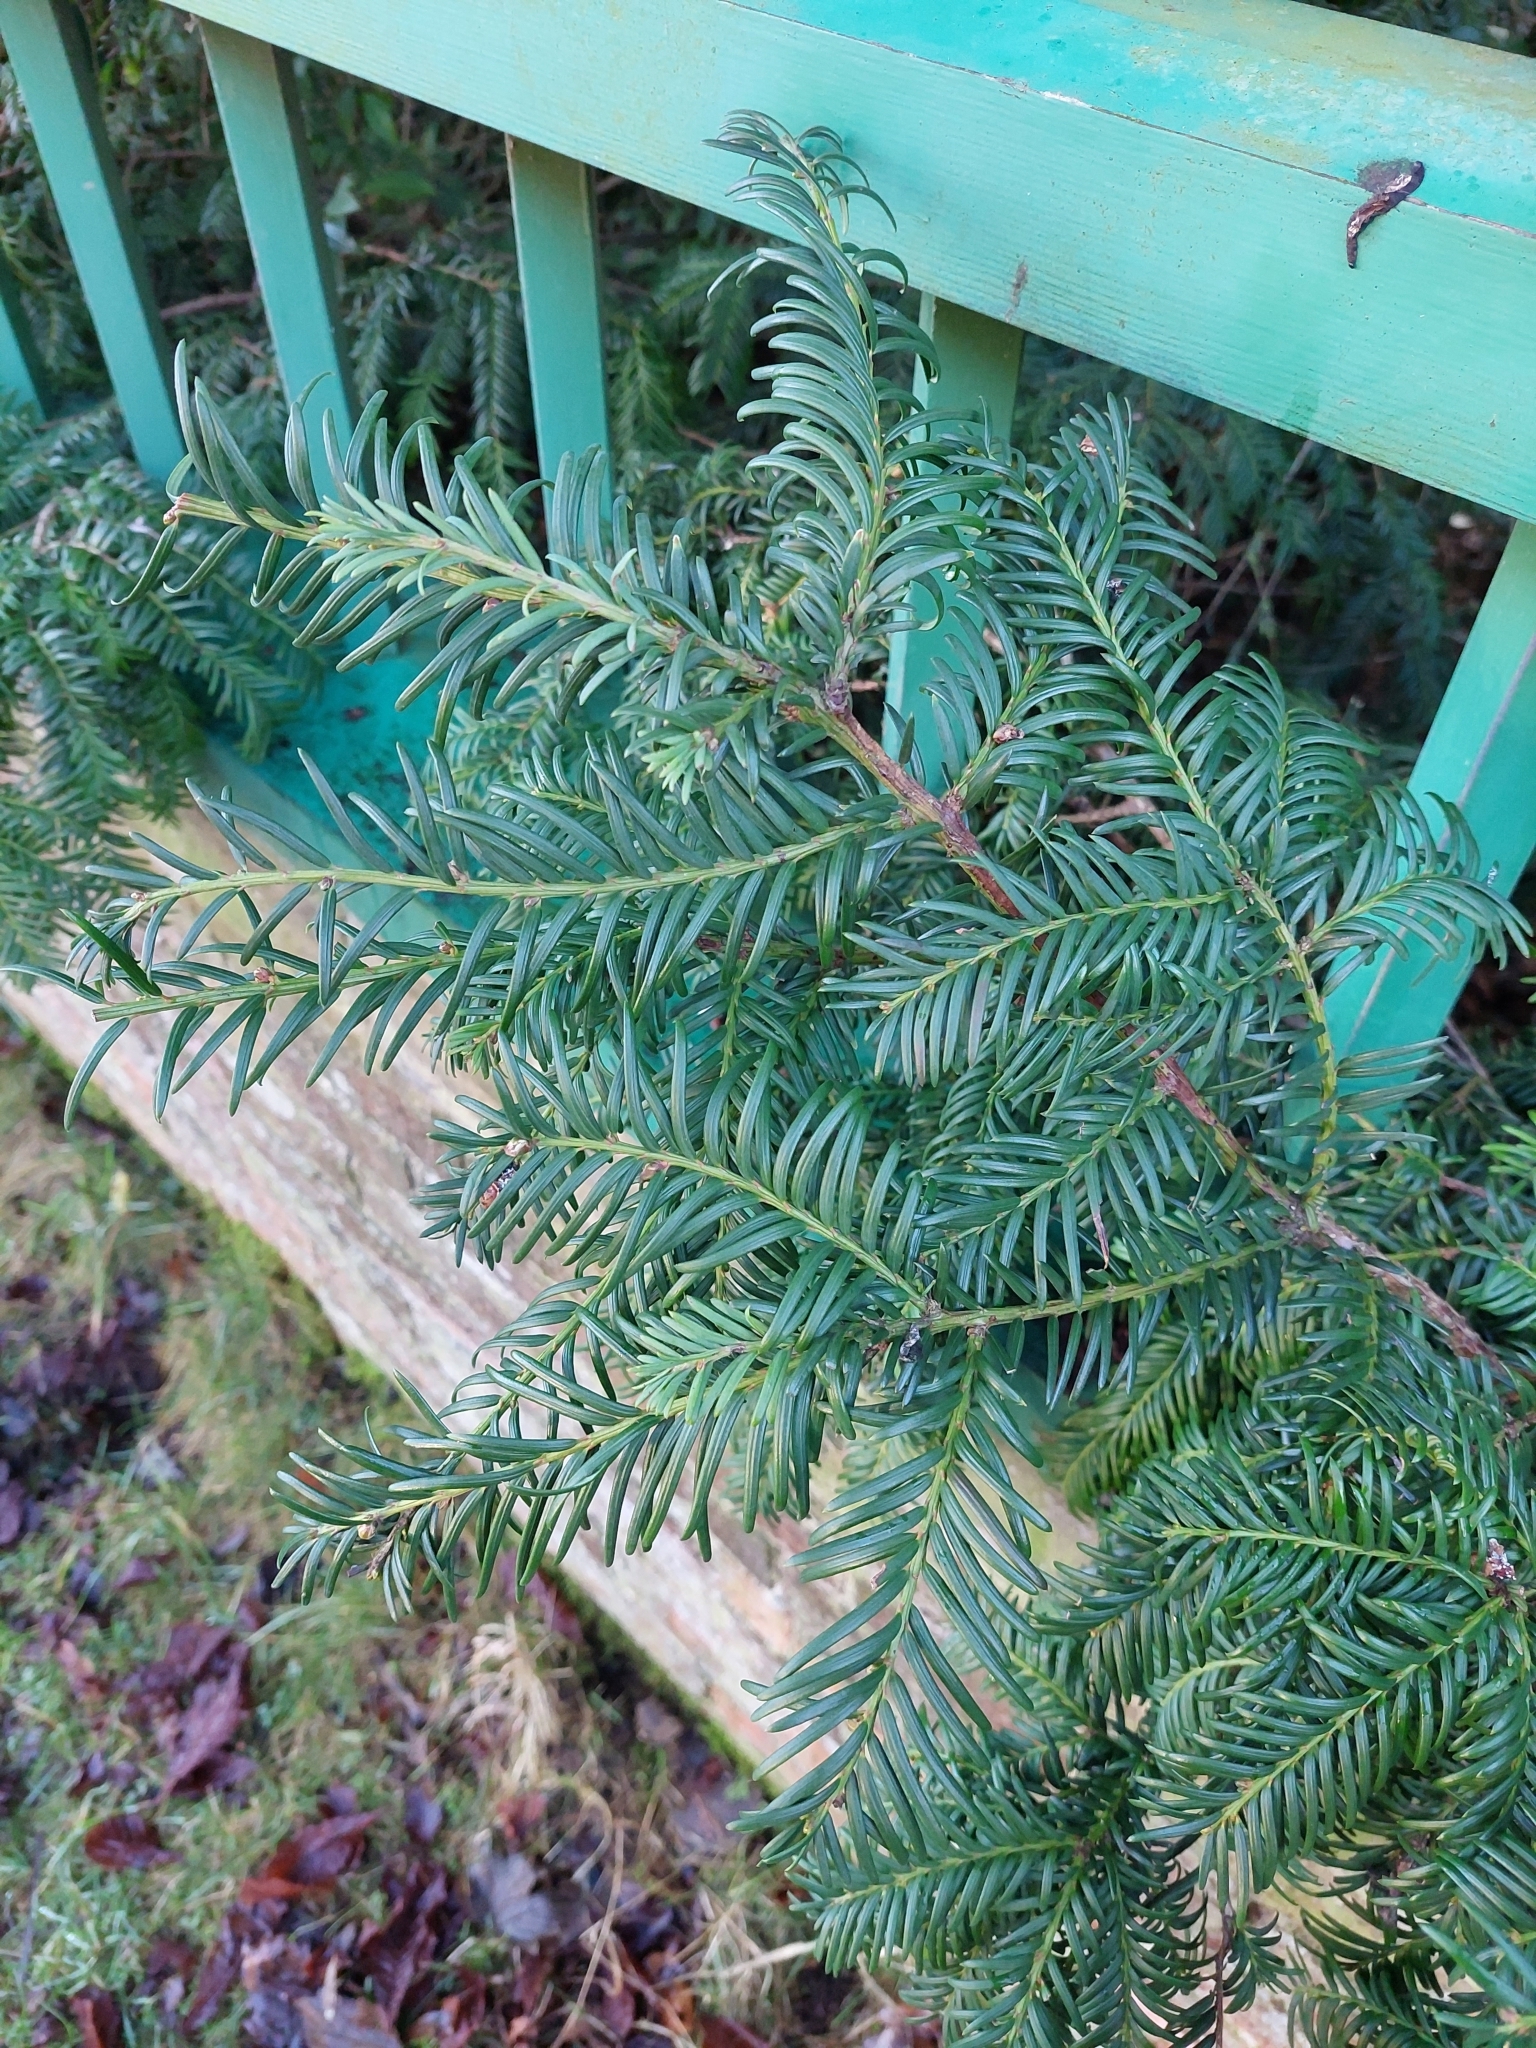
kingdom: Plantae
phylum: Tracheophyta
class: Pinopsida
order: Pinales
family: Taxaceae
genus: Taxus
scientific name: Taxus baccata
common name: Yew
